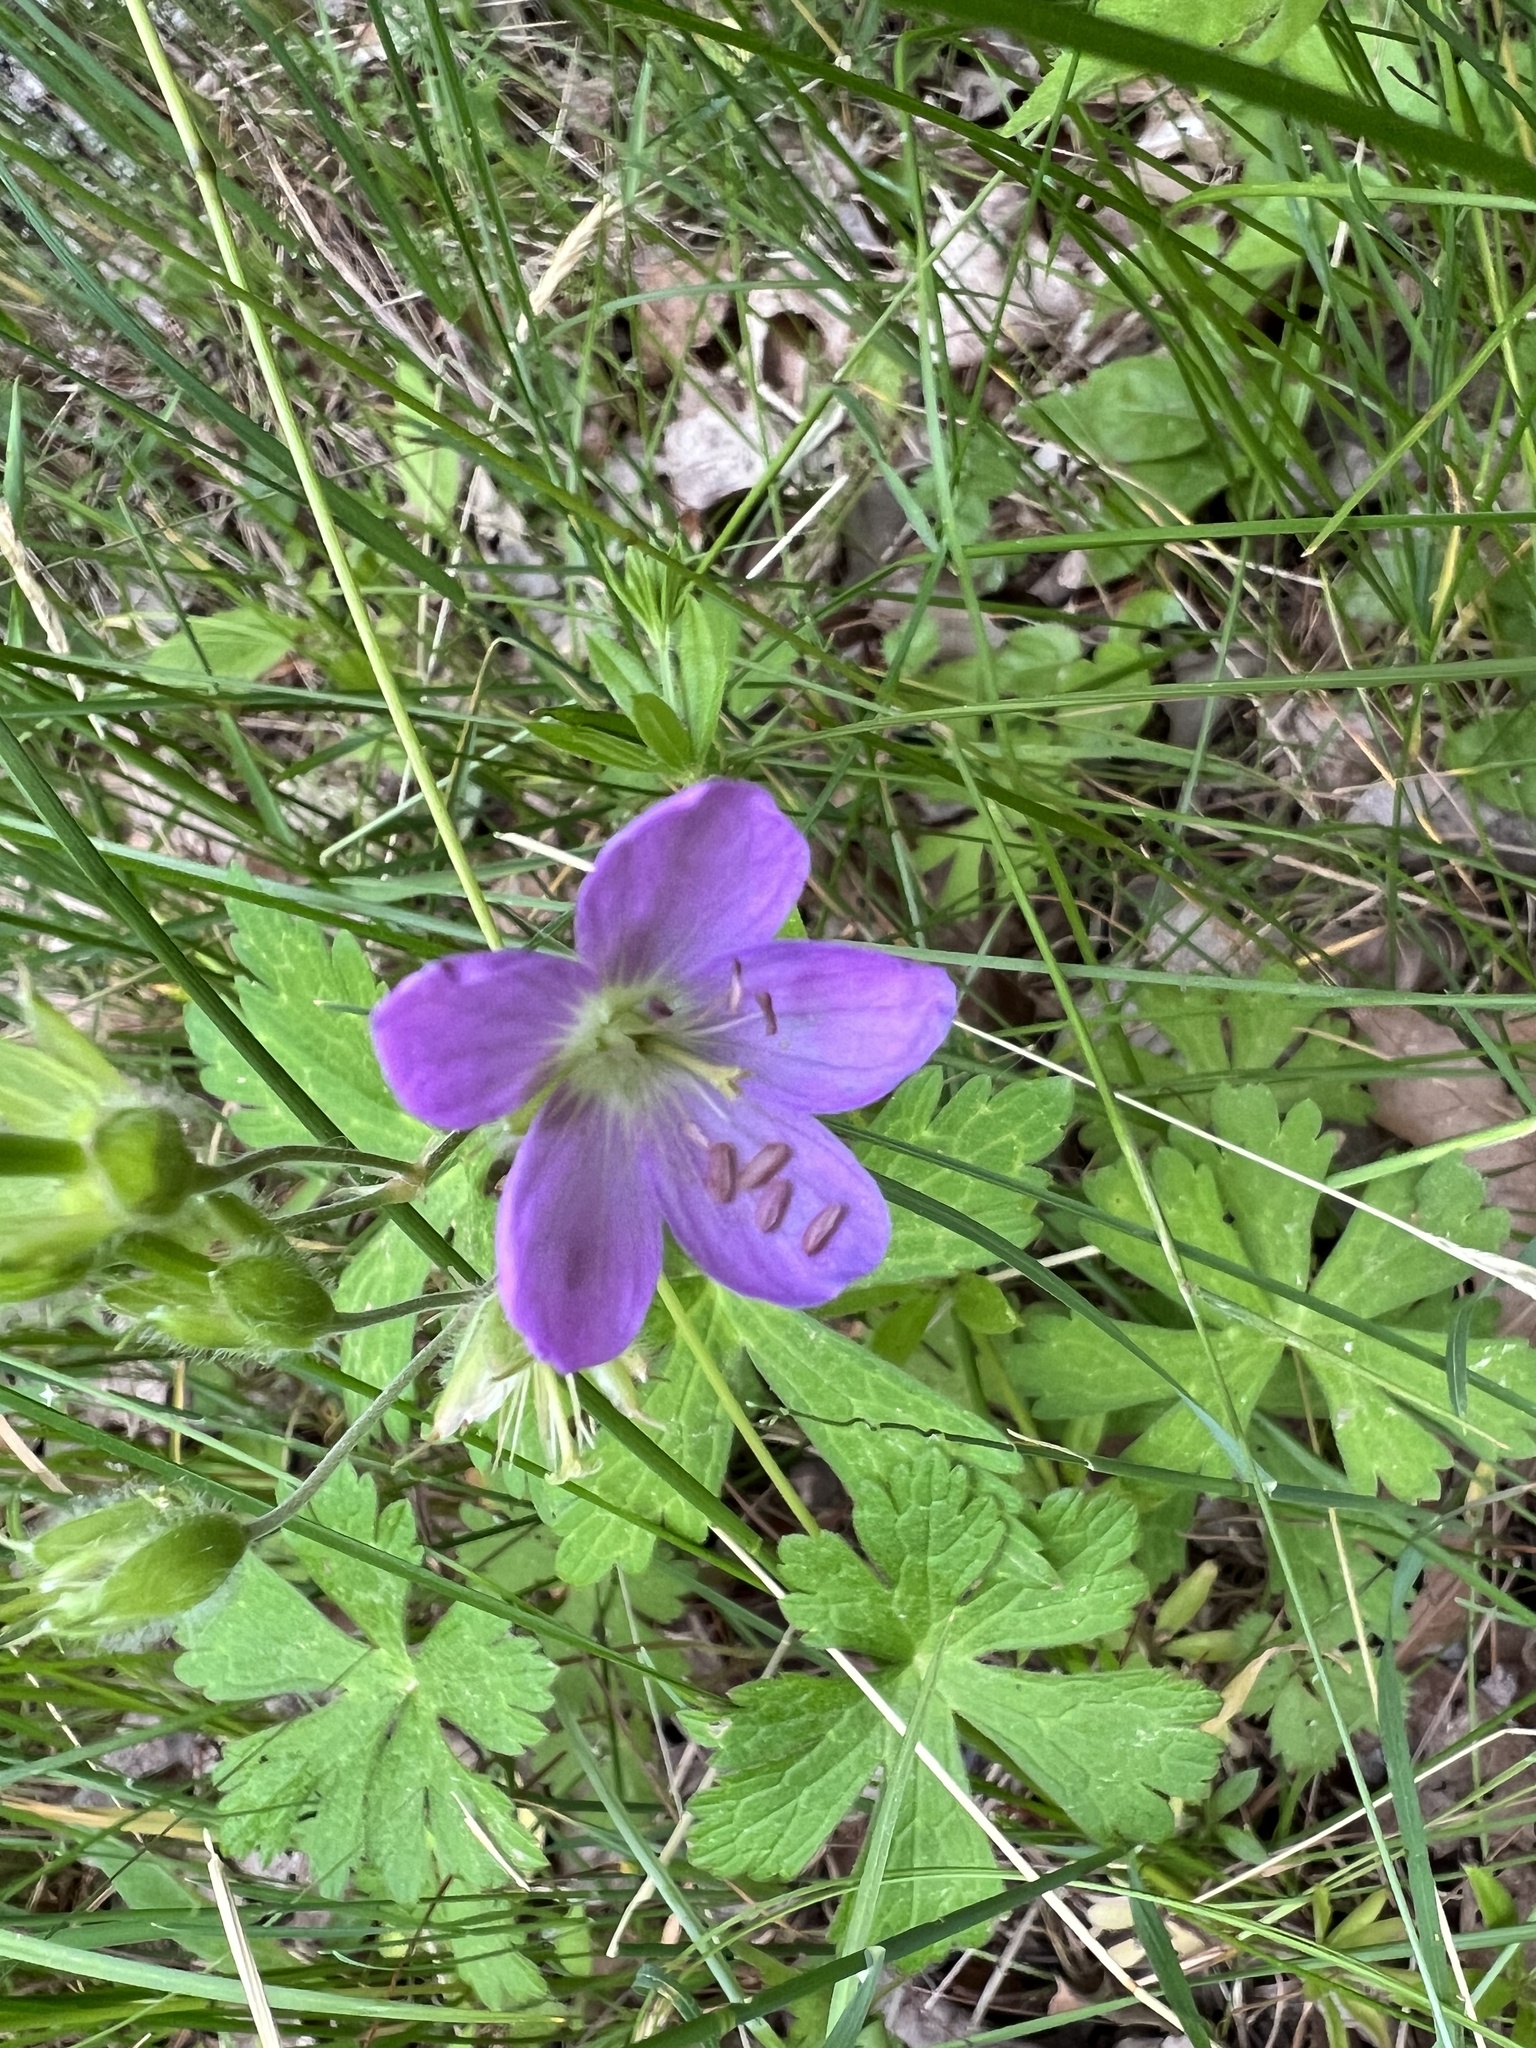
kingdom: Plantae
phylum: Tracheophyta
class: Magnoliopsida
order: Geraniales
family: Geraniaceae
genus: Geranium
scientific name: Geranium maculatum
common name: Spotted geranium
